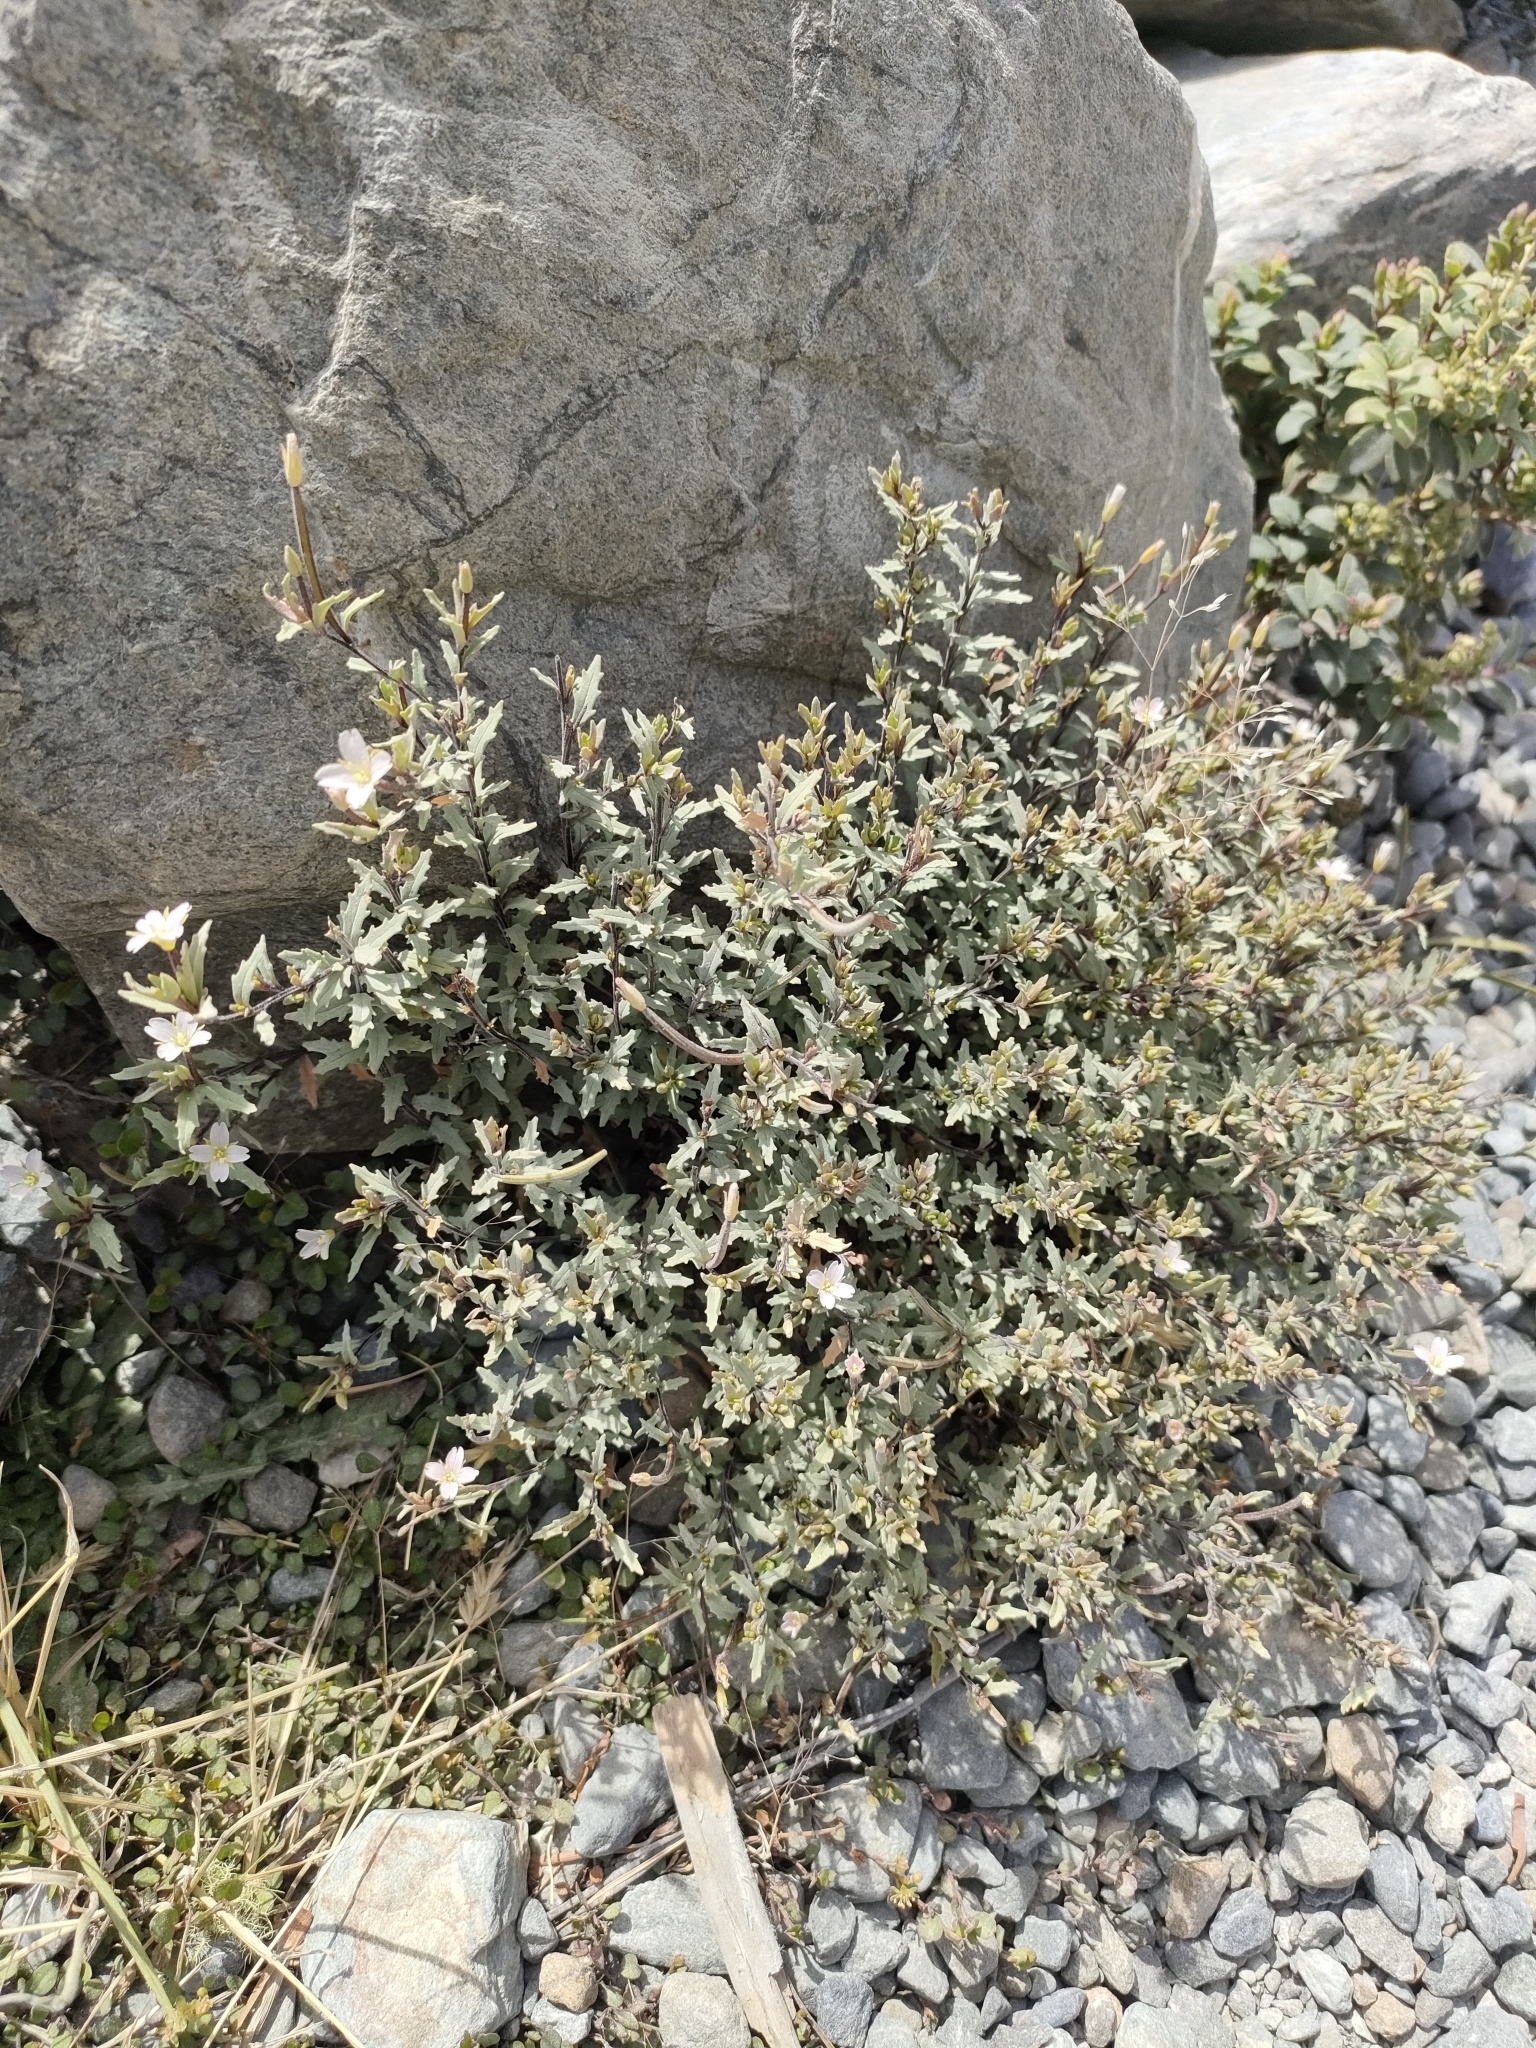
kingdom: Plantae
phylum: Tracheophyta
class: Magnoliopsida
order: Myrtales
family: Onagraceae
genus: Epilobium
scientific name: Epilobium melanocaulon
